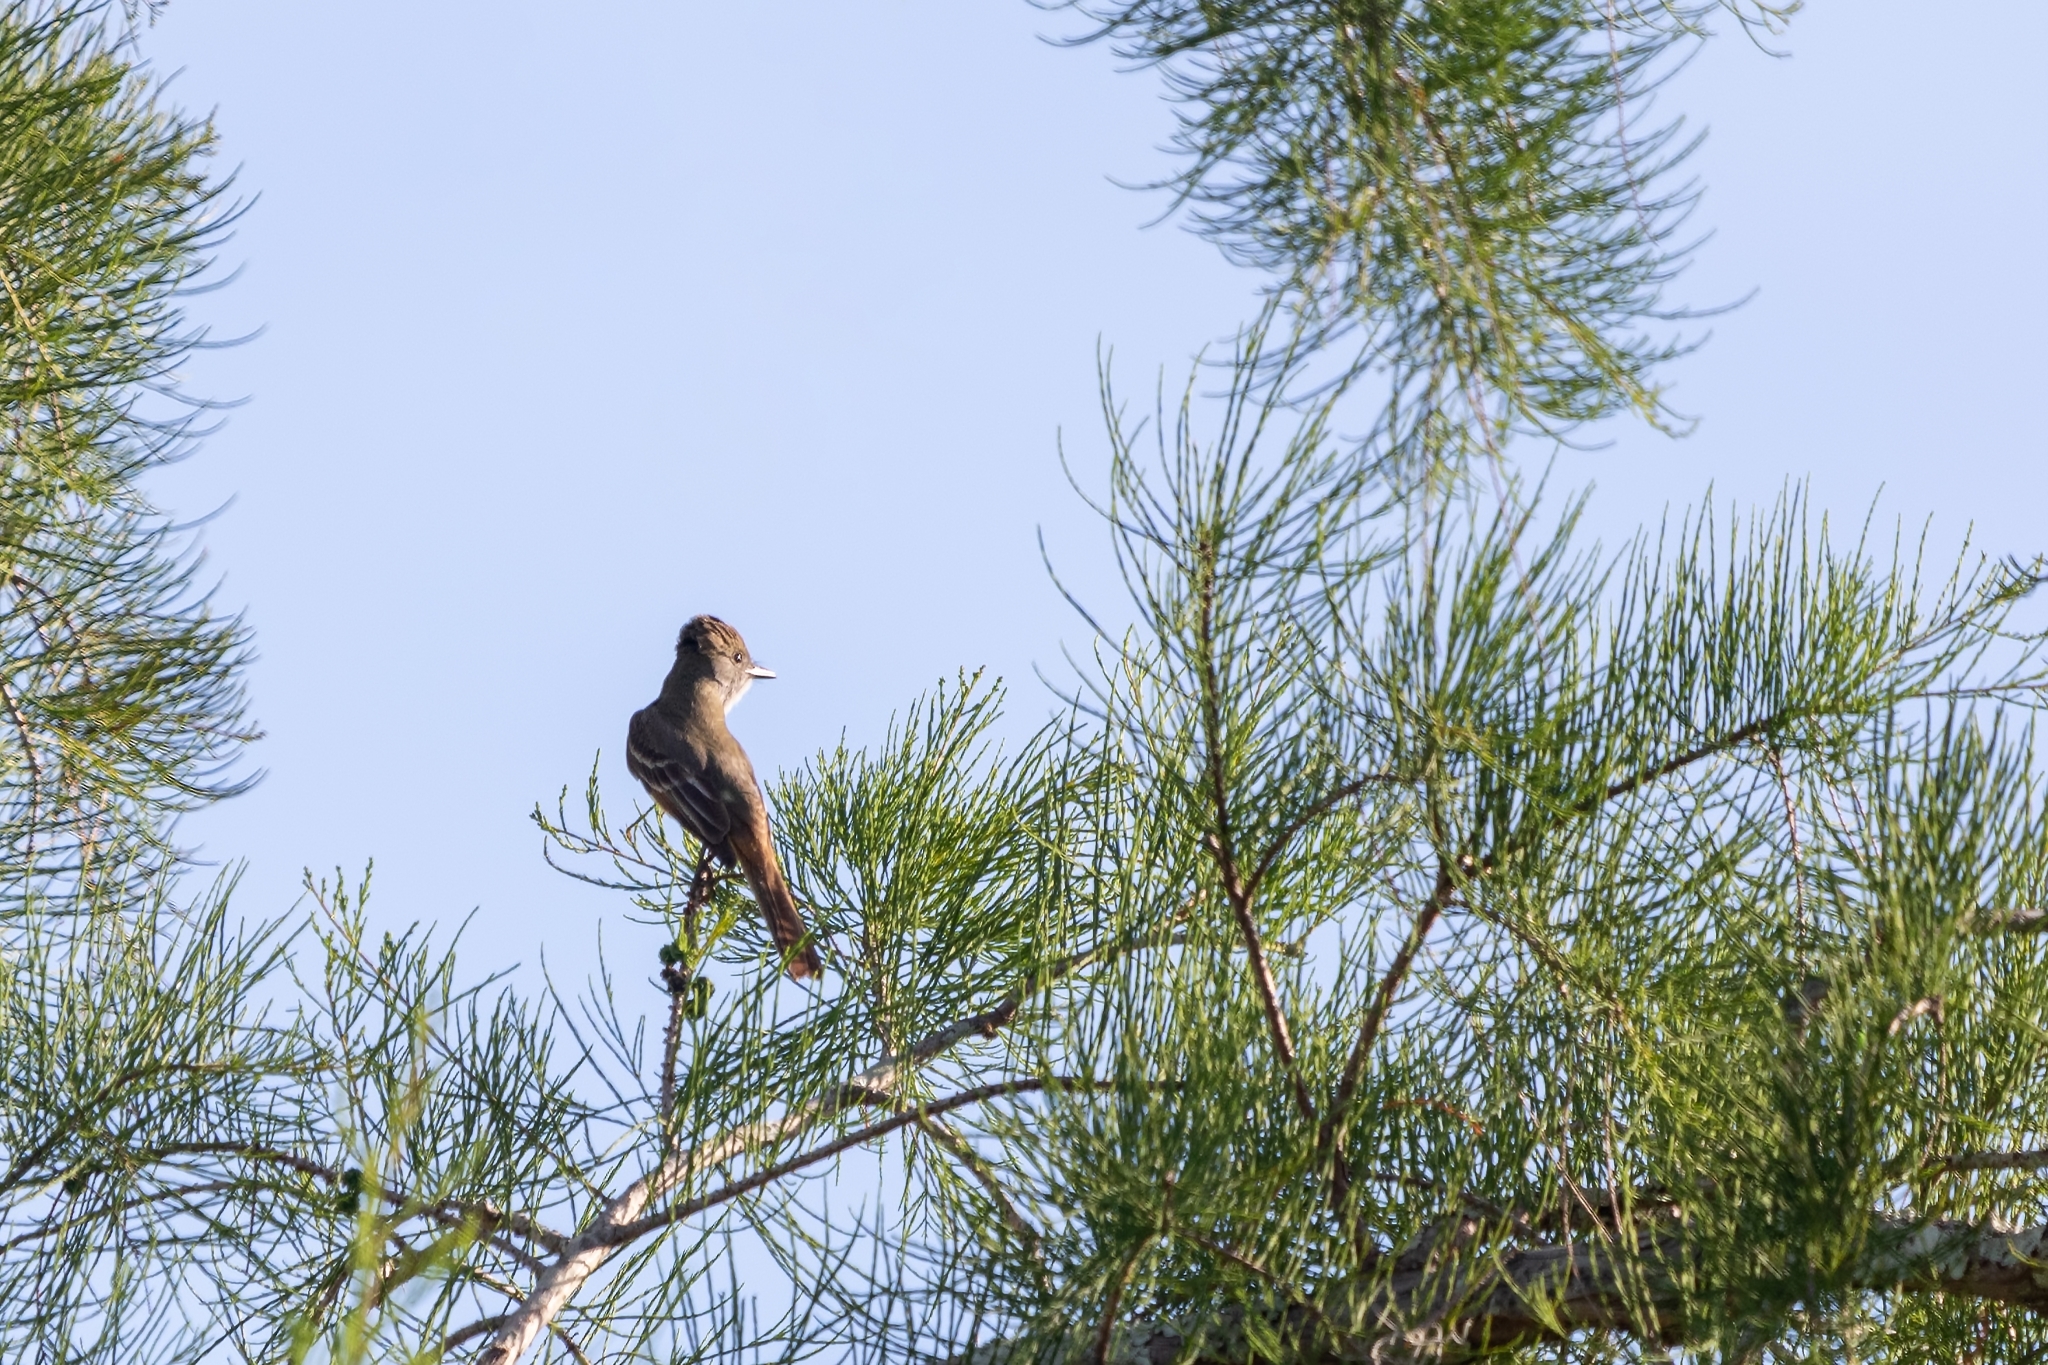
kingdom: Animalia
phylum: Chordata
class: Aves
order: Passeriformes
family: Tyrannidae
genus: Myiarchus
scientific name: Myiarchus crinitus
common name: Great crested flycatcher
